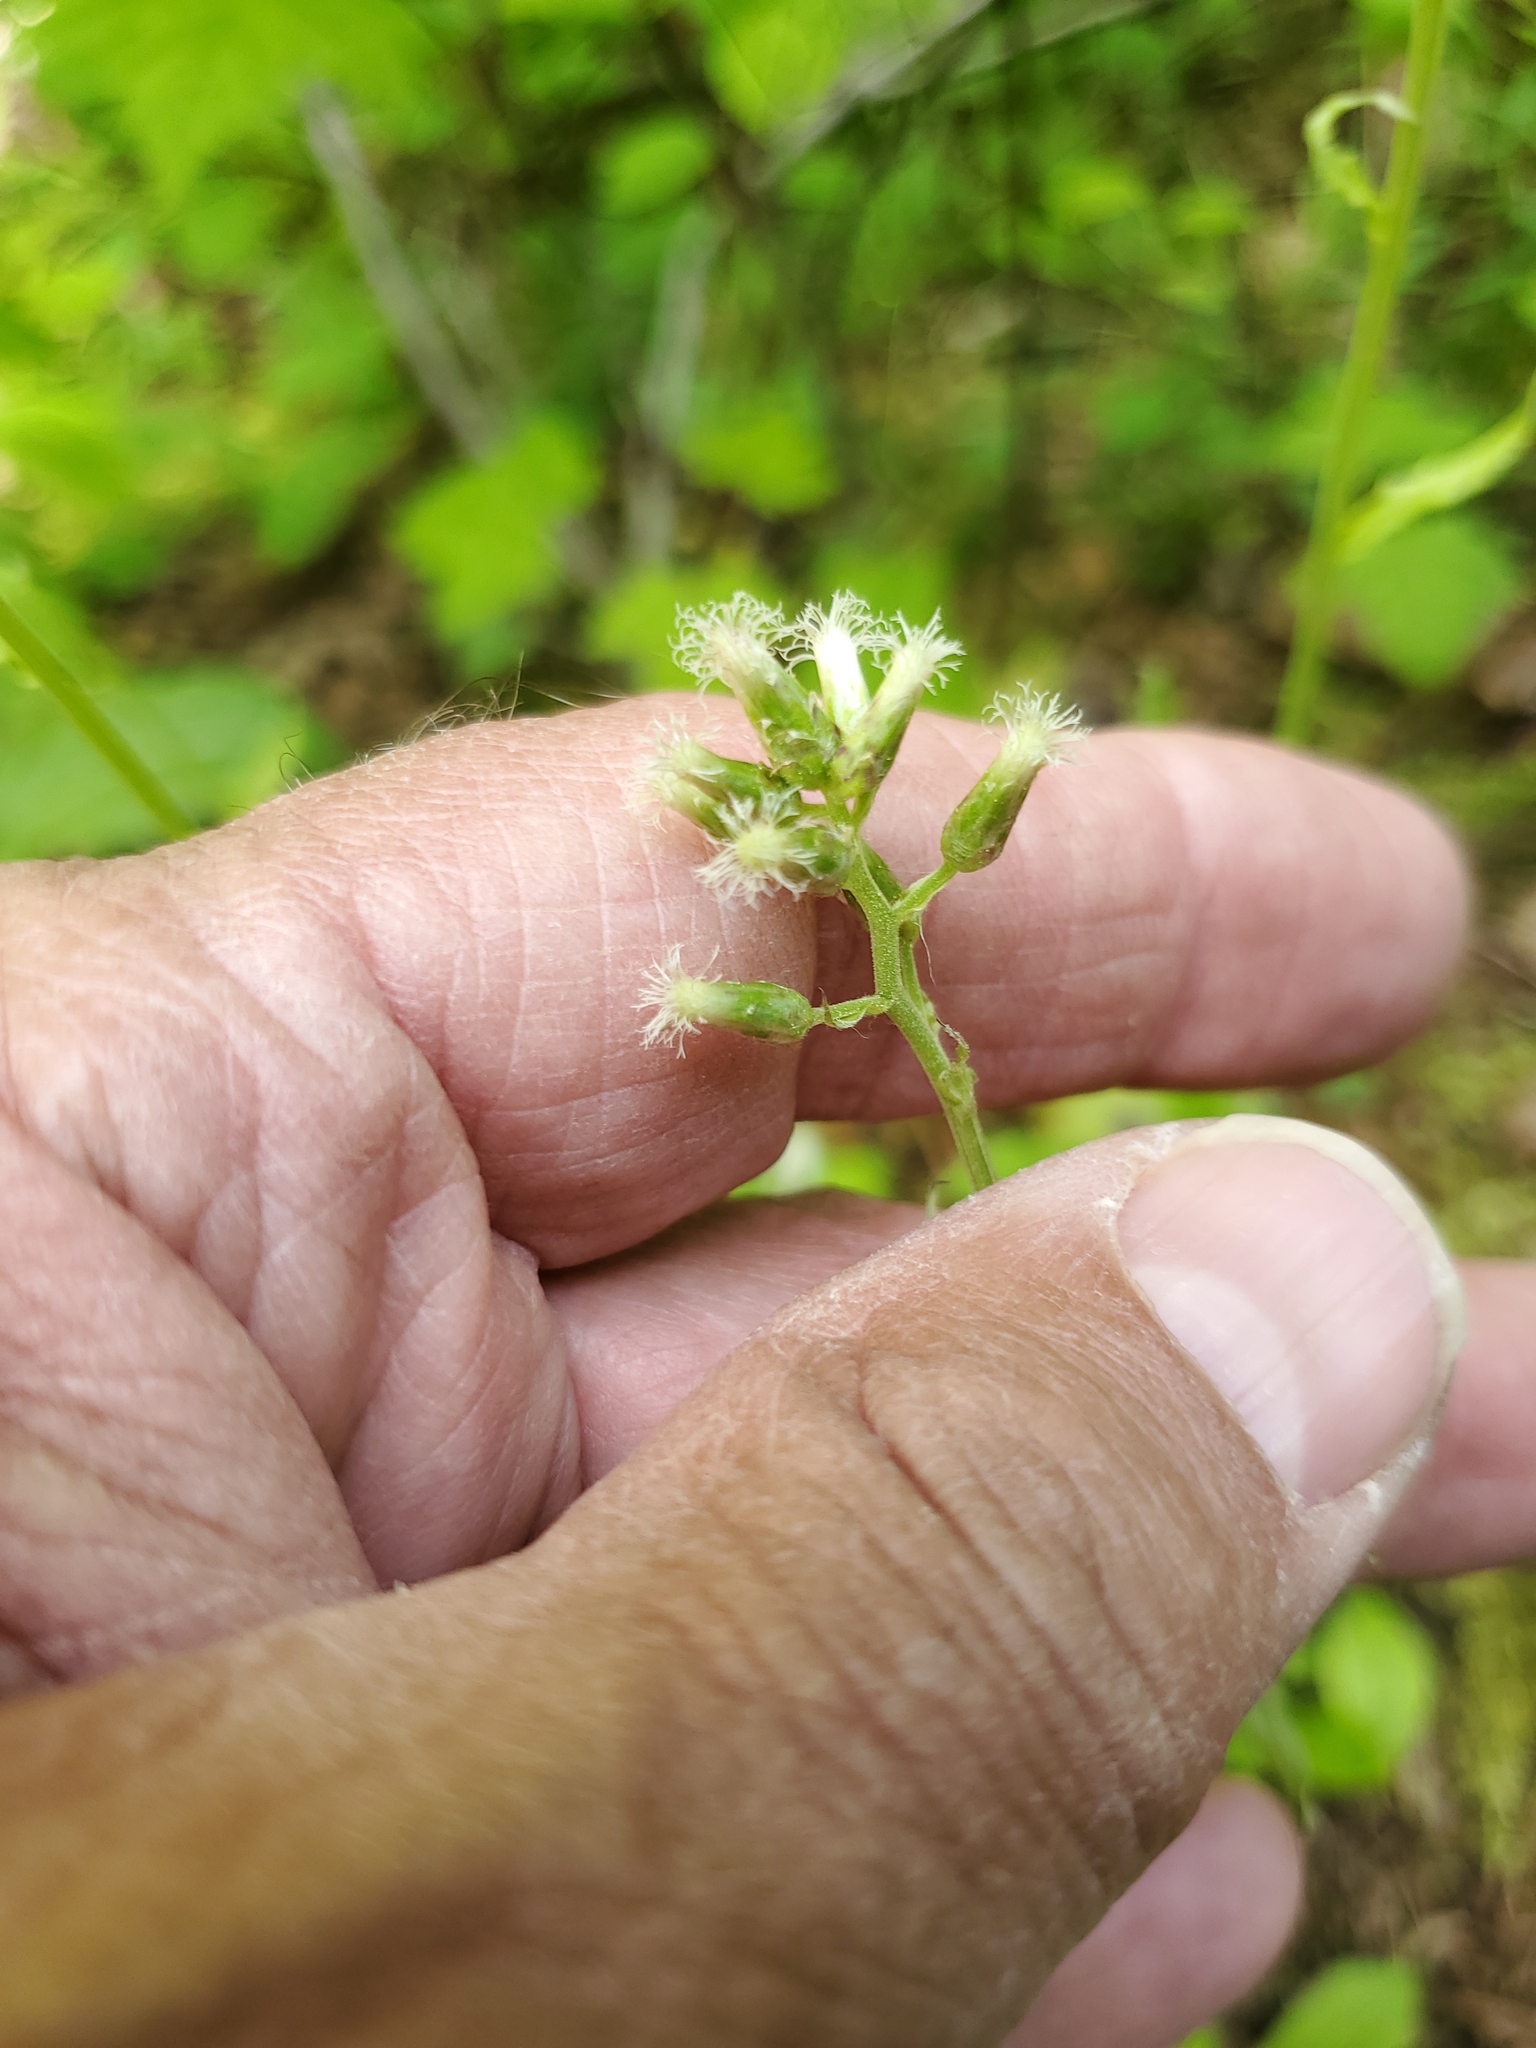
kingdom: Plantae
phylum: Tracheophyta
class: Magnoliopsida
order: Asterales
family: Asteraceae
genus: Antennaria
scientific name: Antennaria racemosa
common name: Racemose pussytoes
